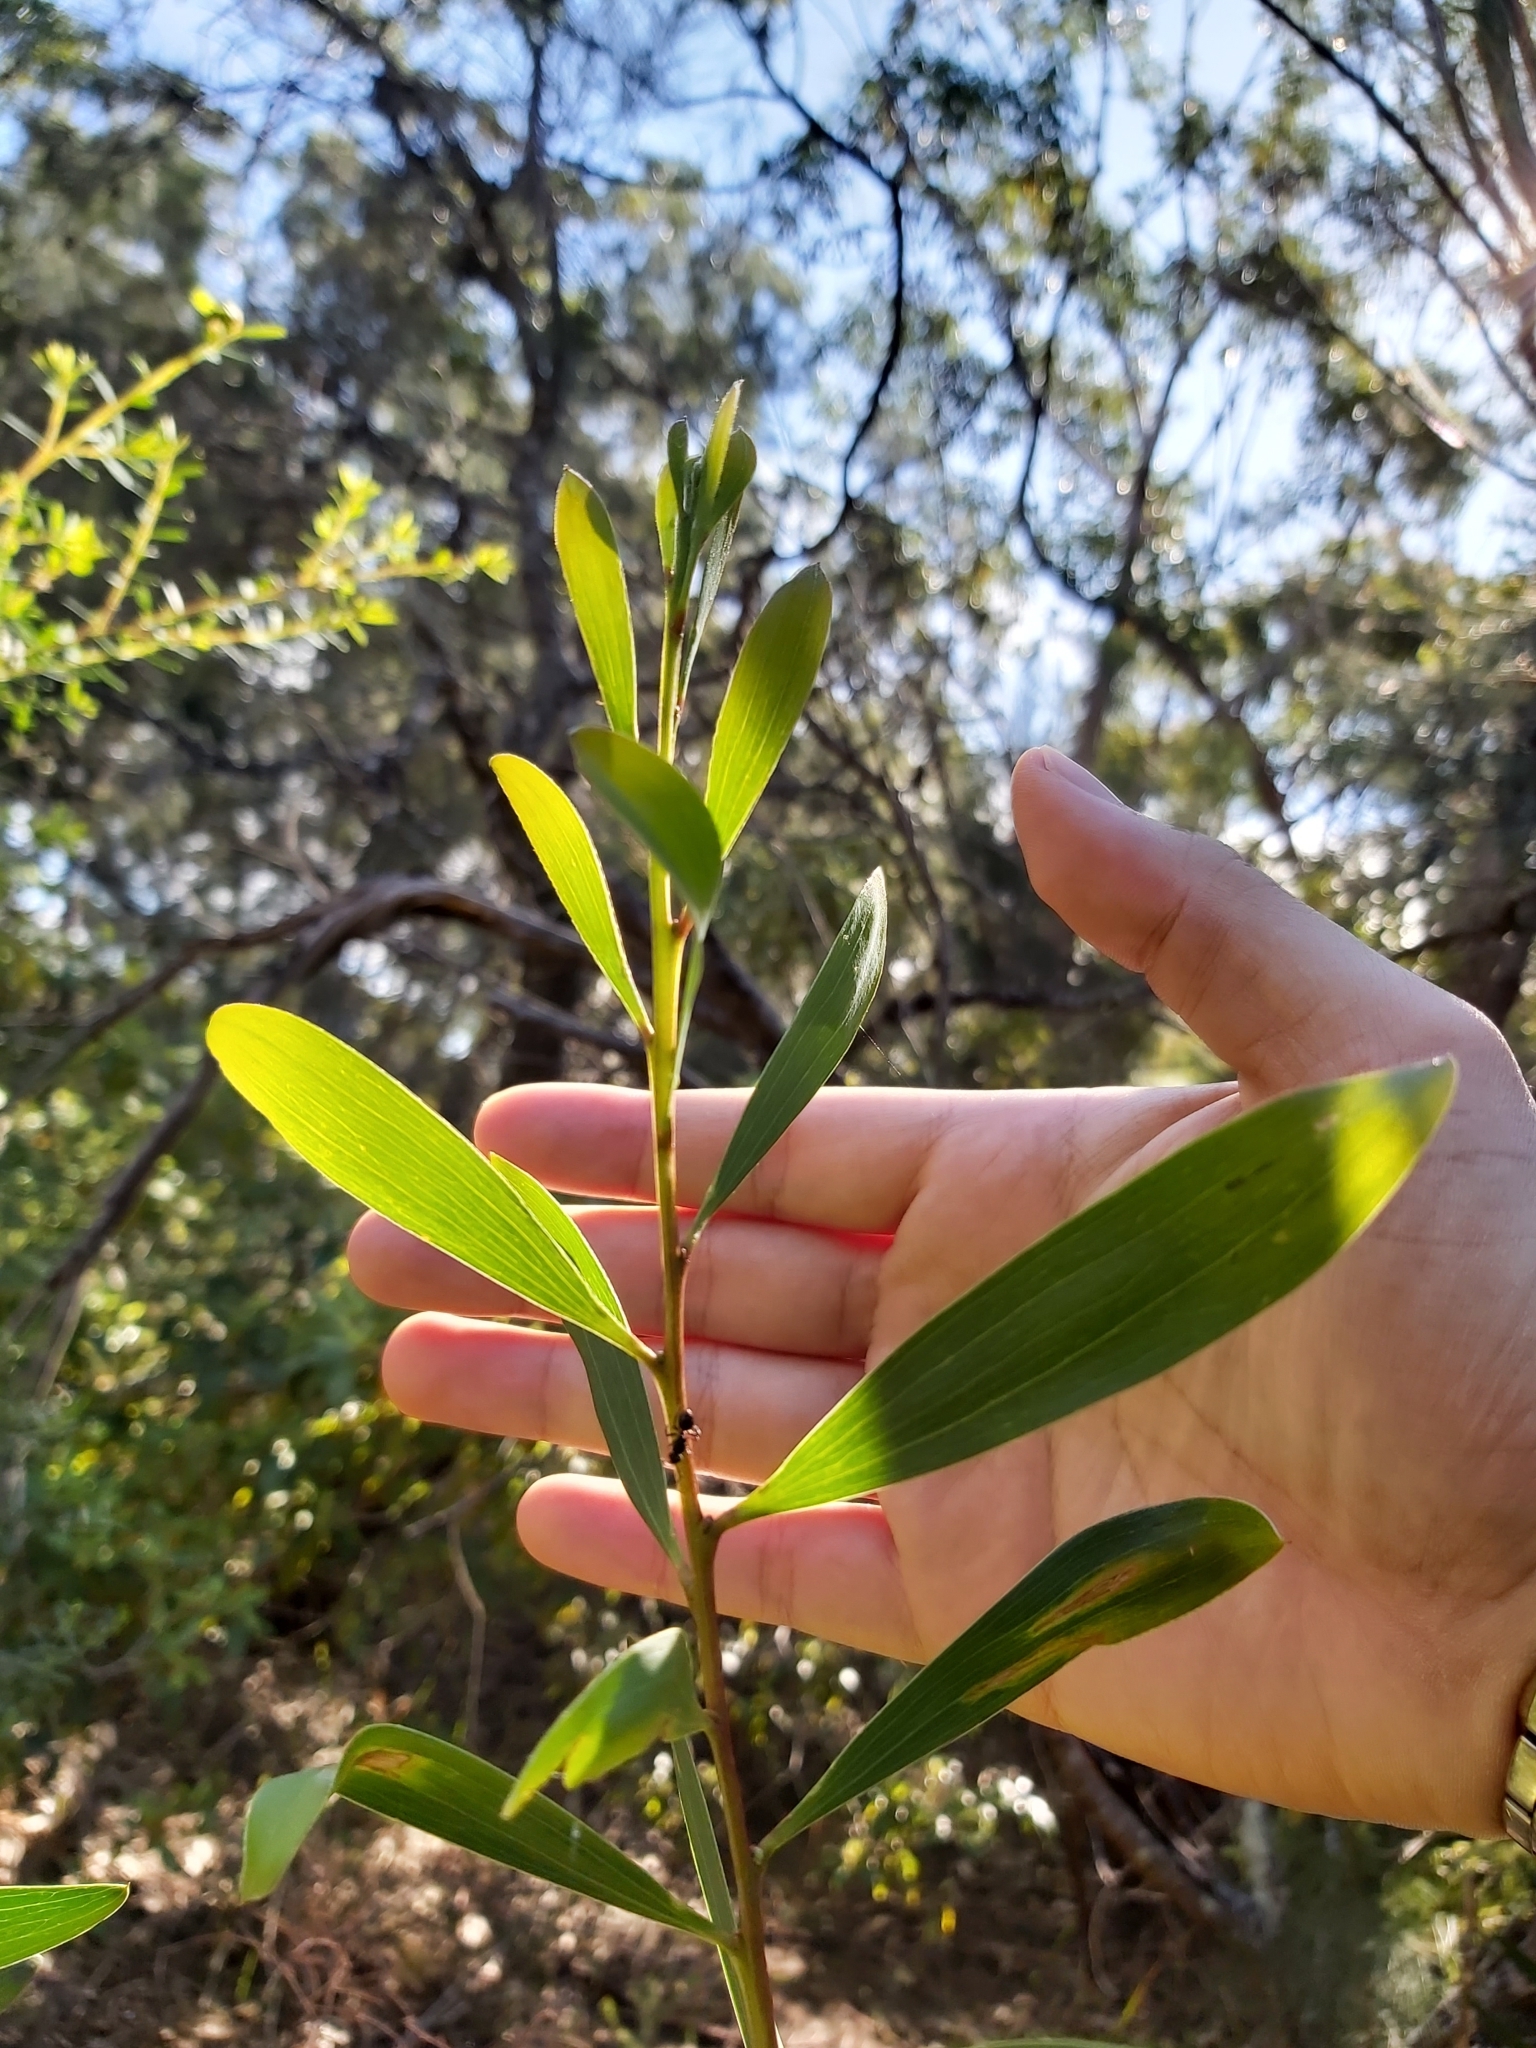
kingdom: Plantae
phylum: Tracheophyta
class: Magnoliopsida
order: Fabales
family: Fabaceae
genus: Acacia
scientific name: Acacia longifolia
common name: Sydney golden wattle
